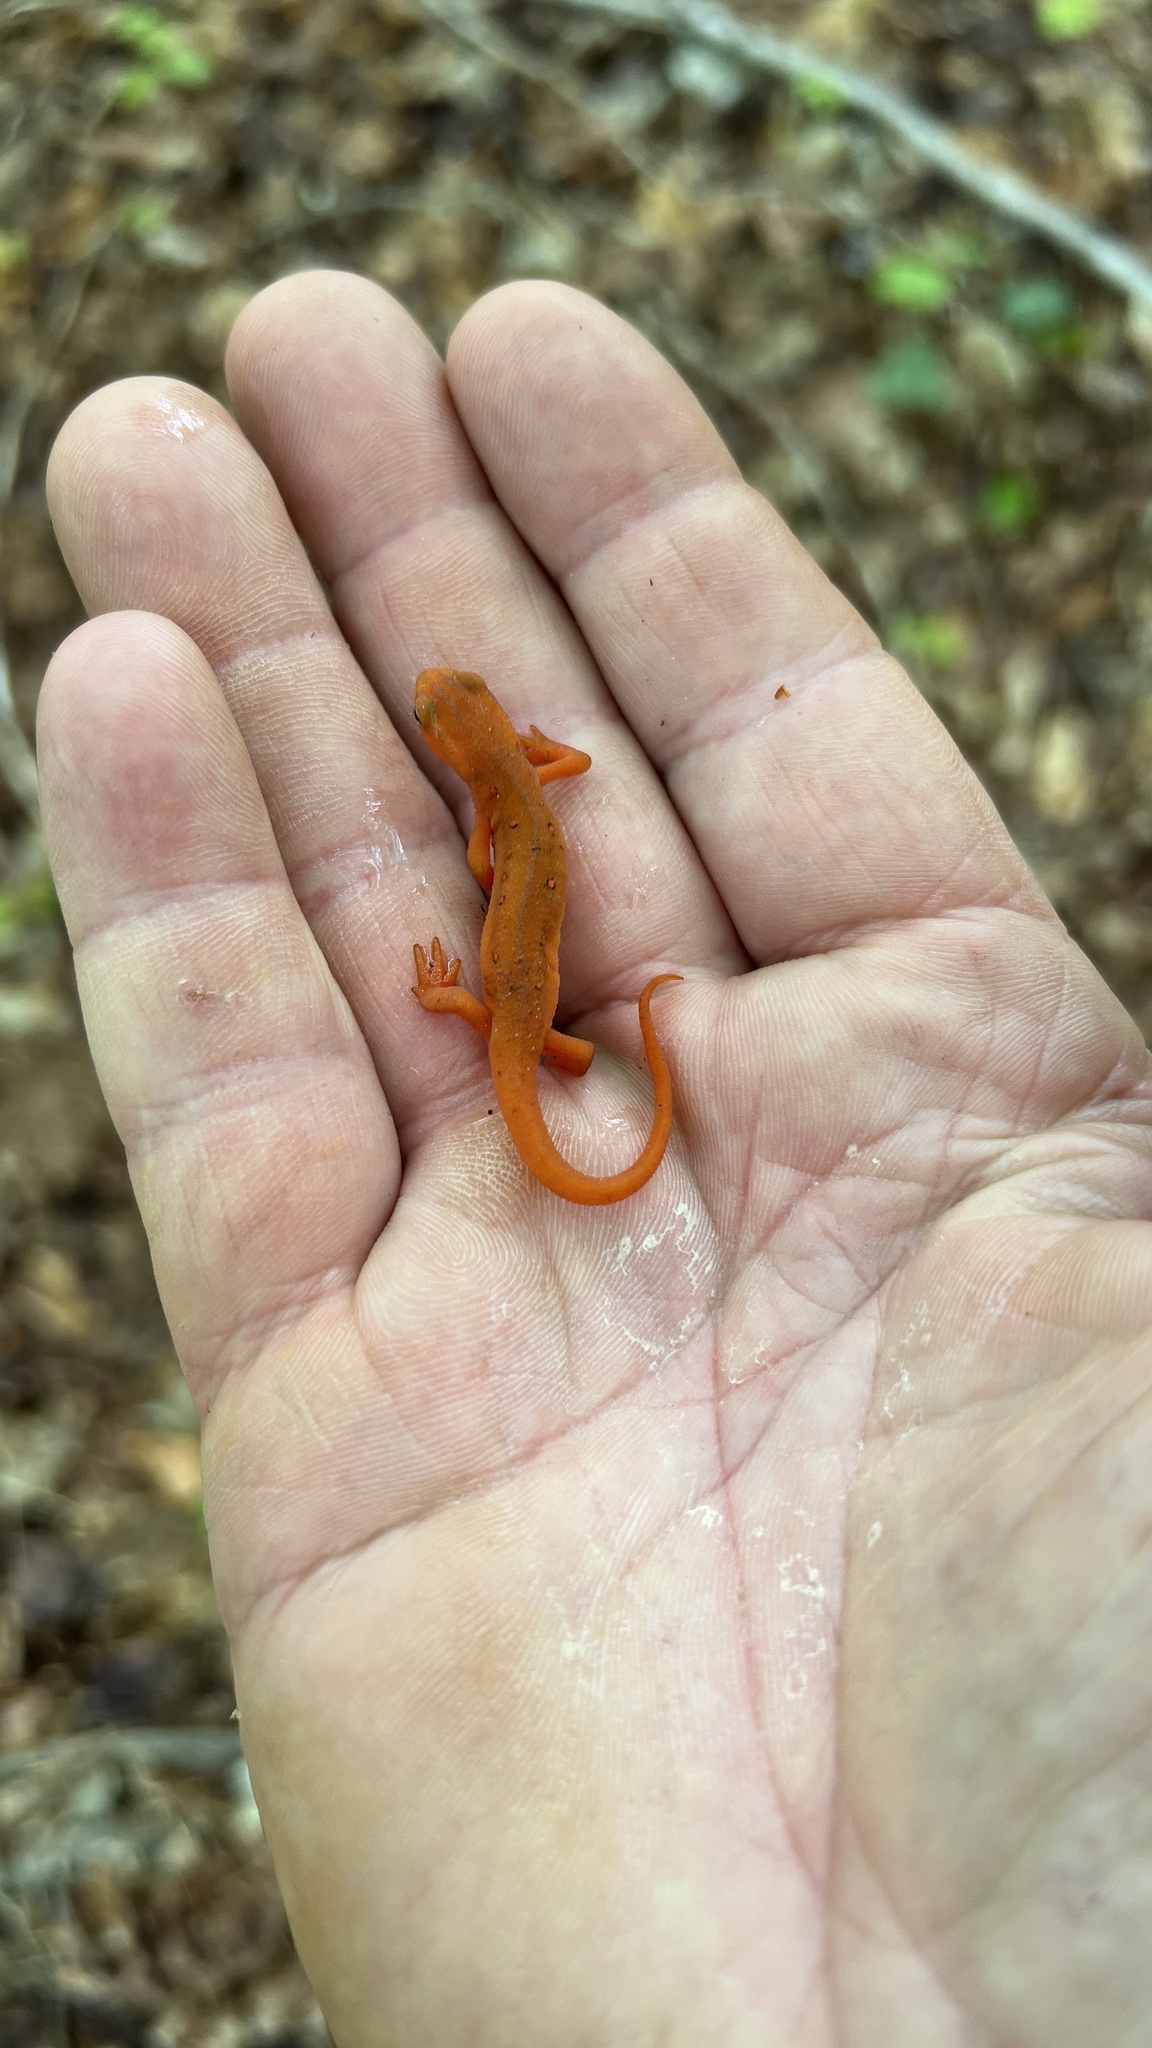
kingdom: Animalia
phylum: Chordata
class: Amphibia
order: Caudata
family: Salamandridae
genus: Notophthalmus
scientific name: Notophthalmus viridescens
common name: Eastern newt
